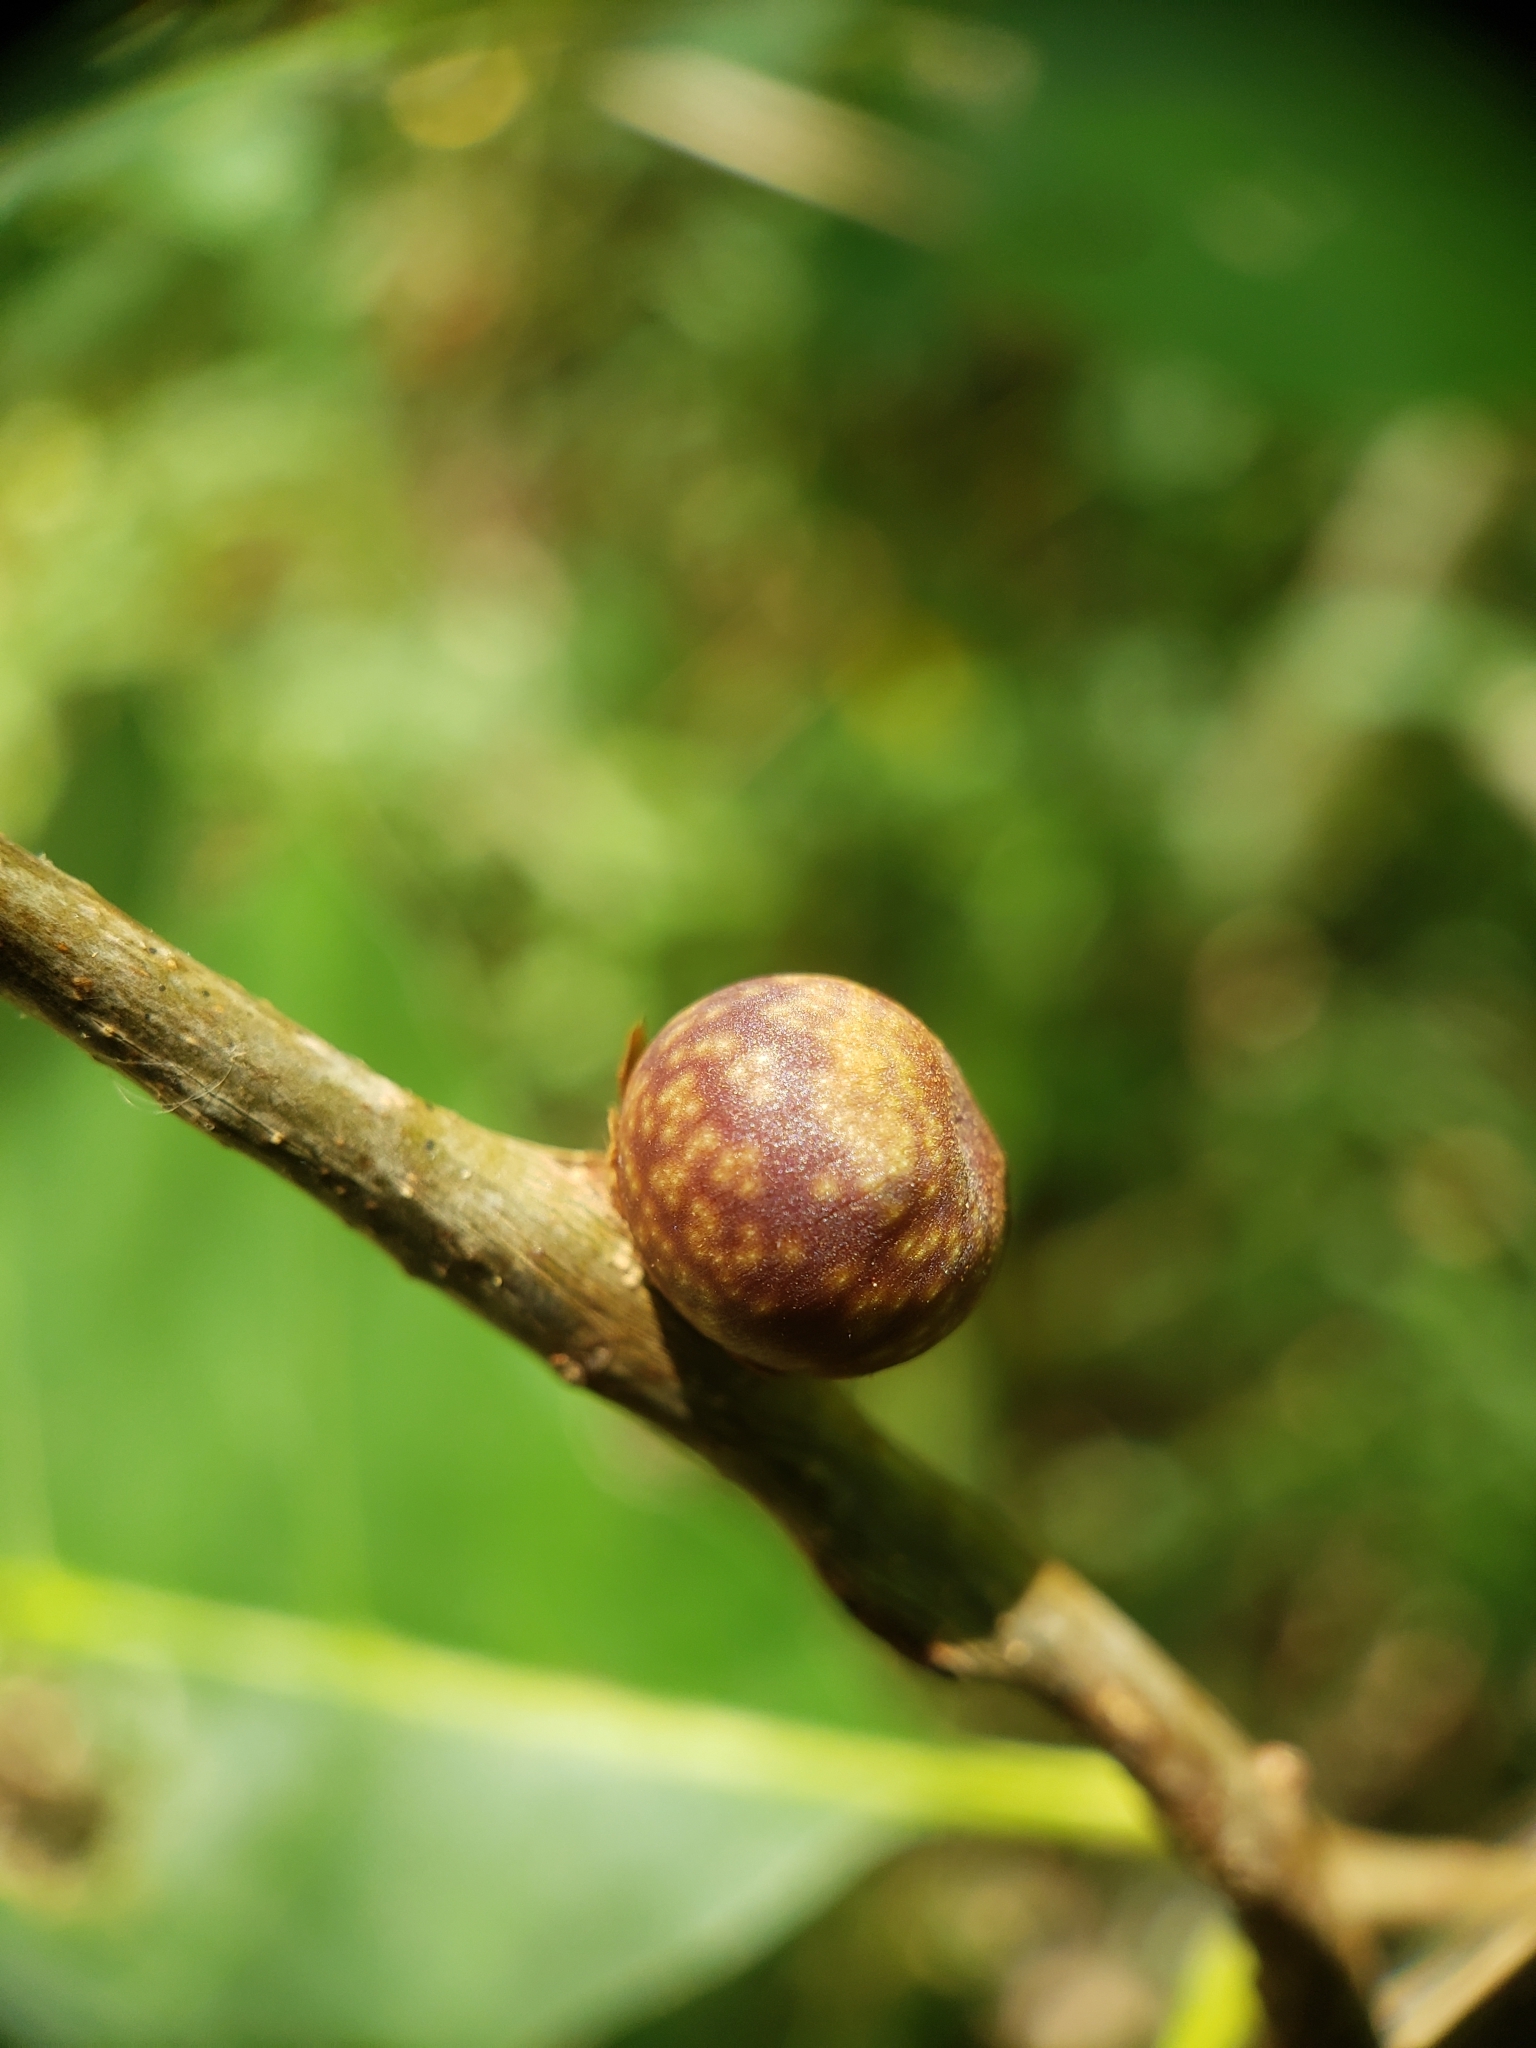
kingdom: Animalia
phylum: Arthropoda
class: Insecta
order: Hymenoptera
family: Cynipidae
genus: Kokkocynips
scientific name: Kokkocynips imbricariae
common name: Banded bullet gall wasp
